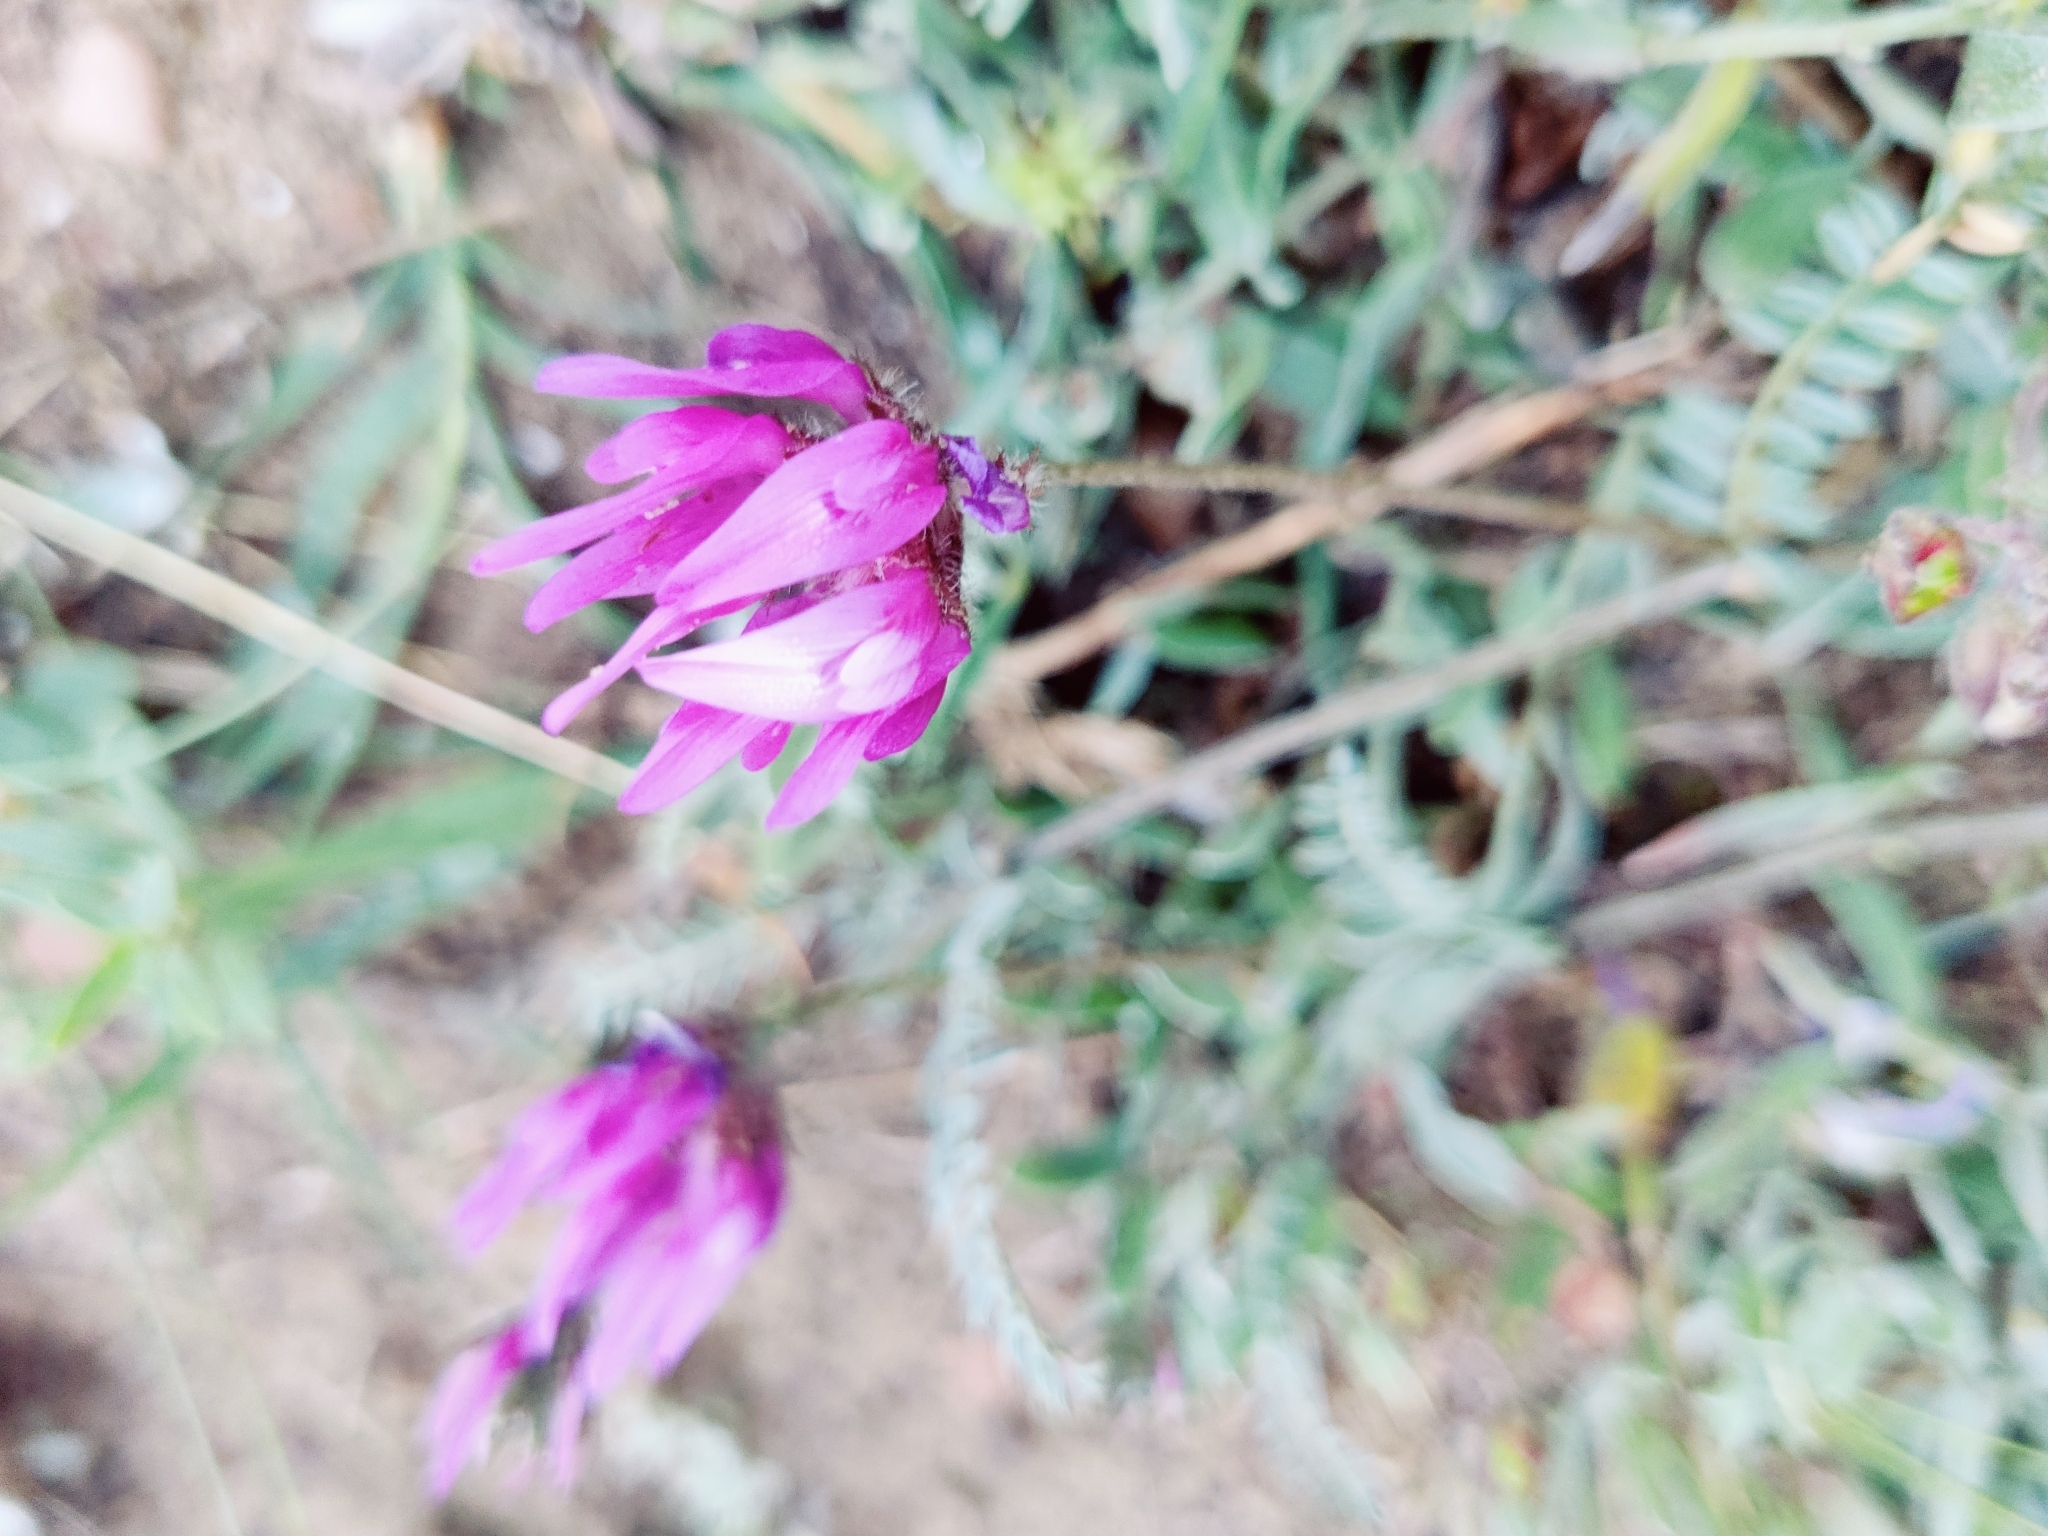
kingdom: Plantae
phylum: Tracheophyta
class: Magnoliopsida
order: Fabales
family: Fabaceae
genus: Astragalus
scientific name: Astragalus onobrychis
